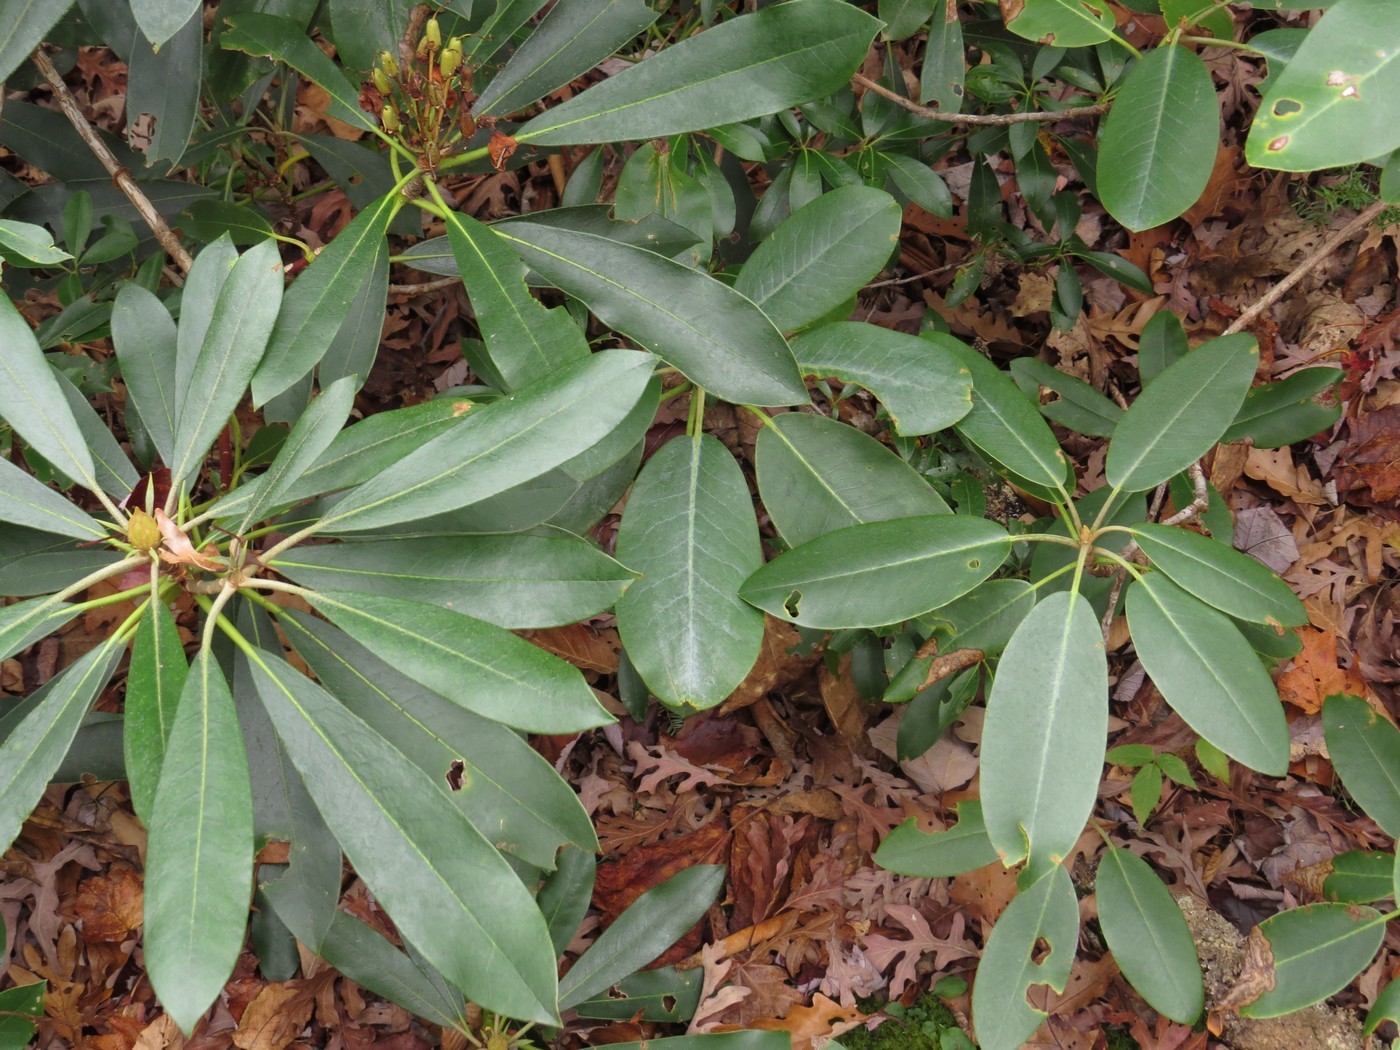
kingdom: Plantae
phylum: Tracheophyta
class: Magnoliopsida
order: Ericales
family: Ericaceae
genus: Rhododendron
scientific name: Rhododendron maximum
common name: Great rhododendron
